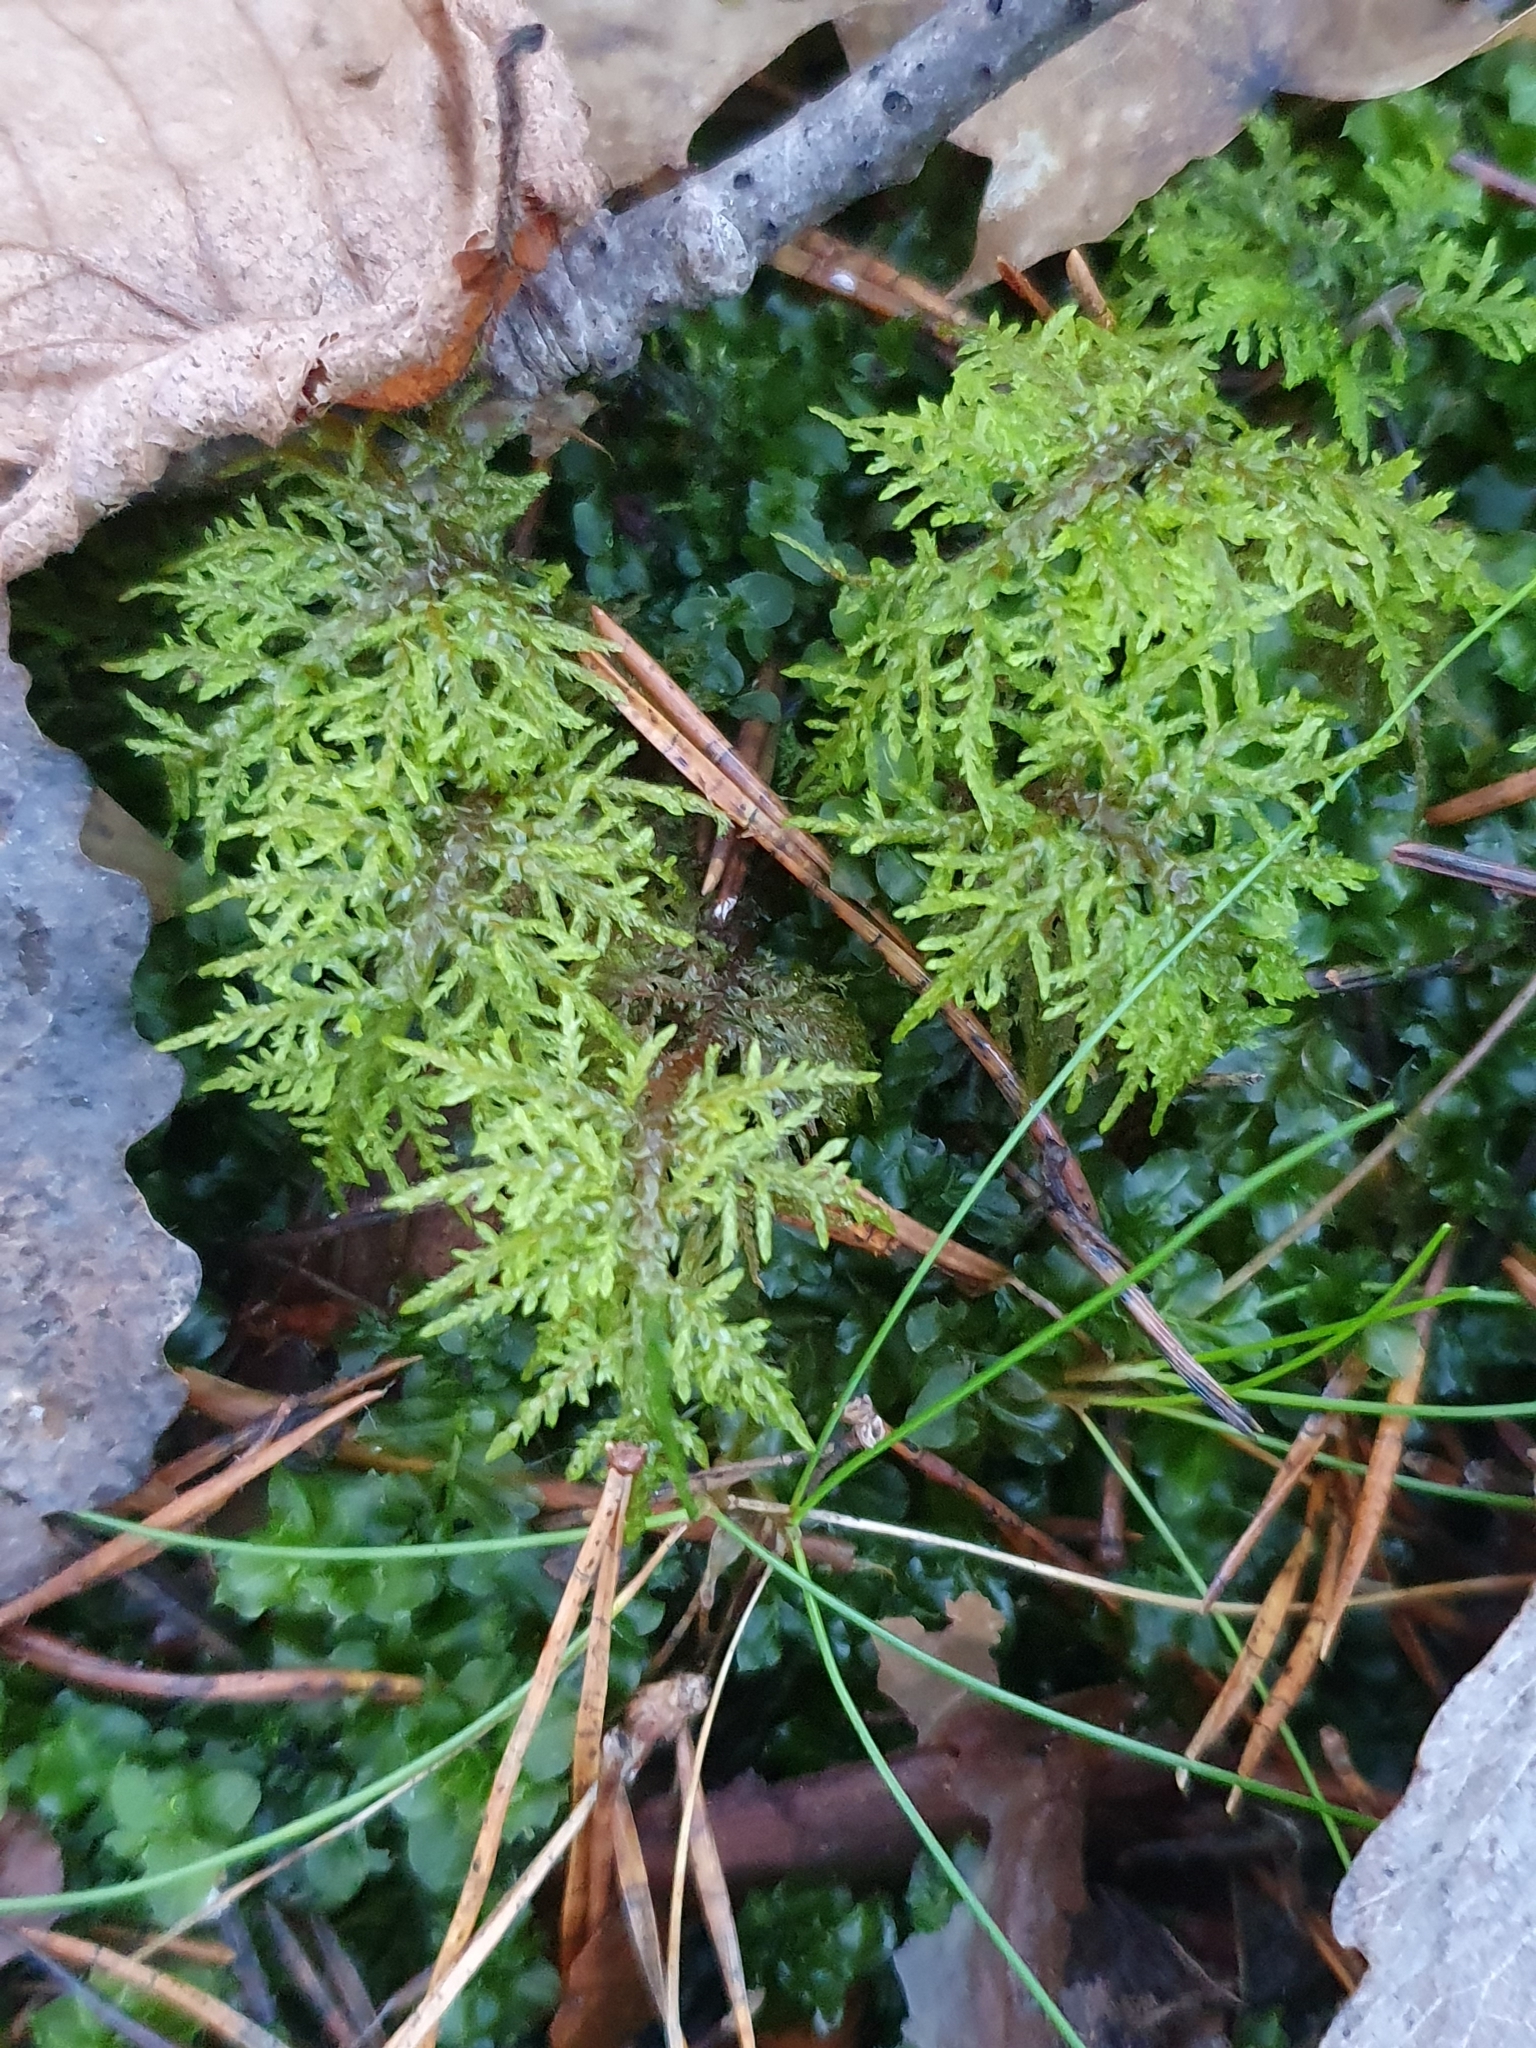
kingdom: Plantae
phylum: Bryophyta
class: Bryopsida
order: Hypnales
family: Hylocomiaceae
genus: Hylocomium
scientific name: Hylocomium splendens
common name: Stairstep moss
